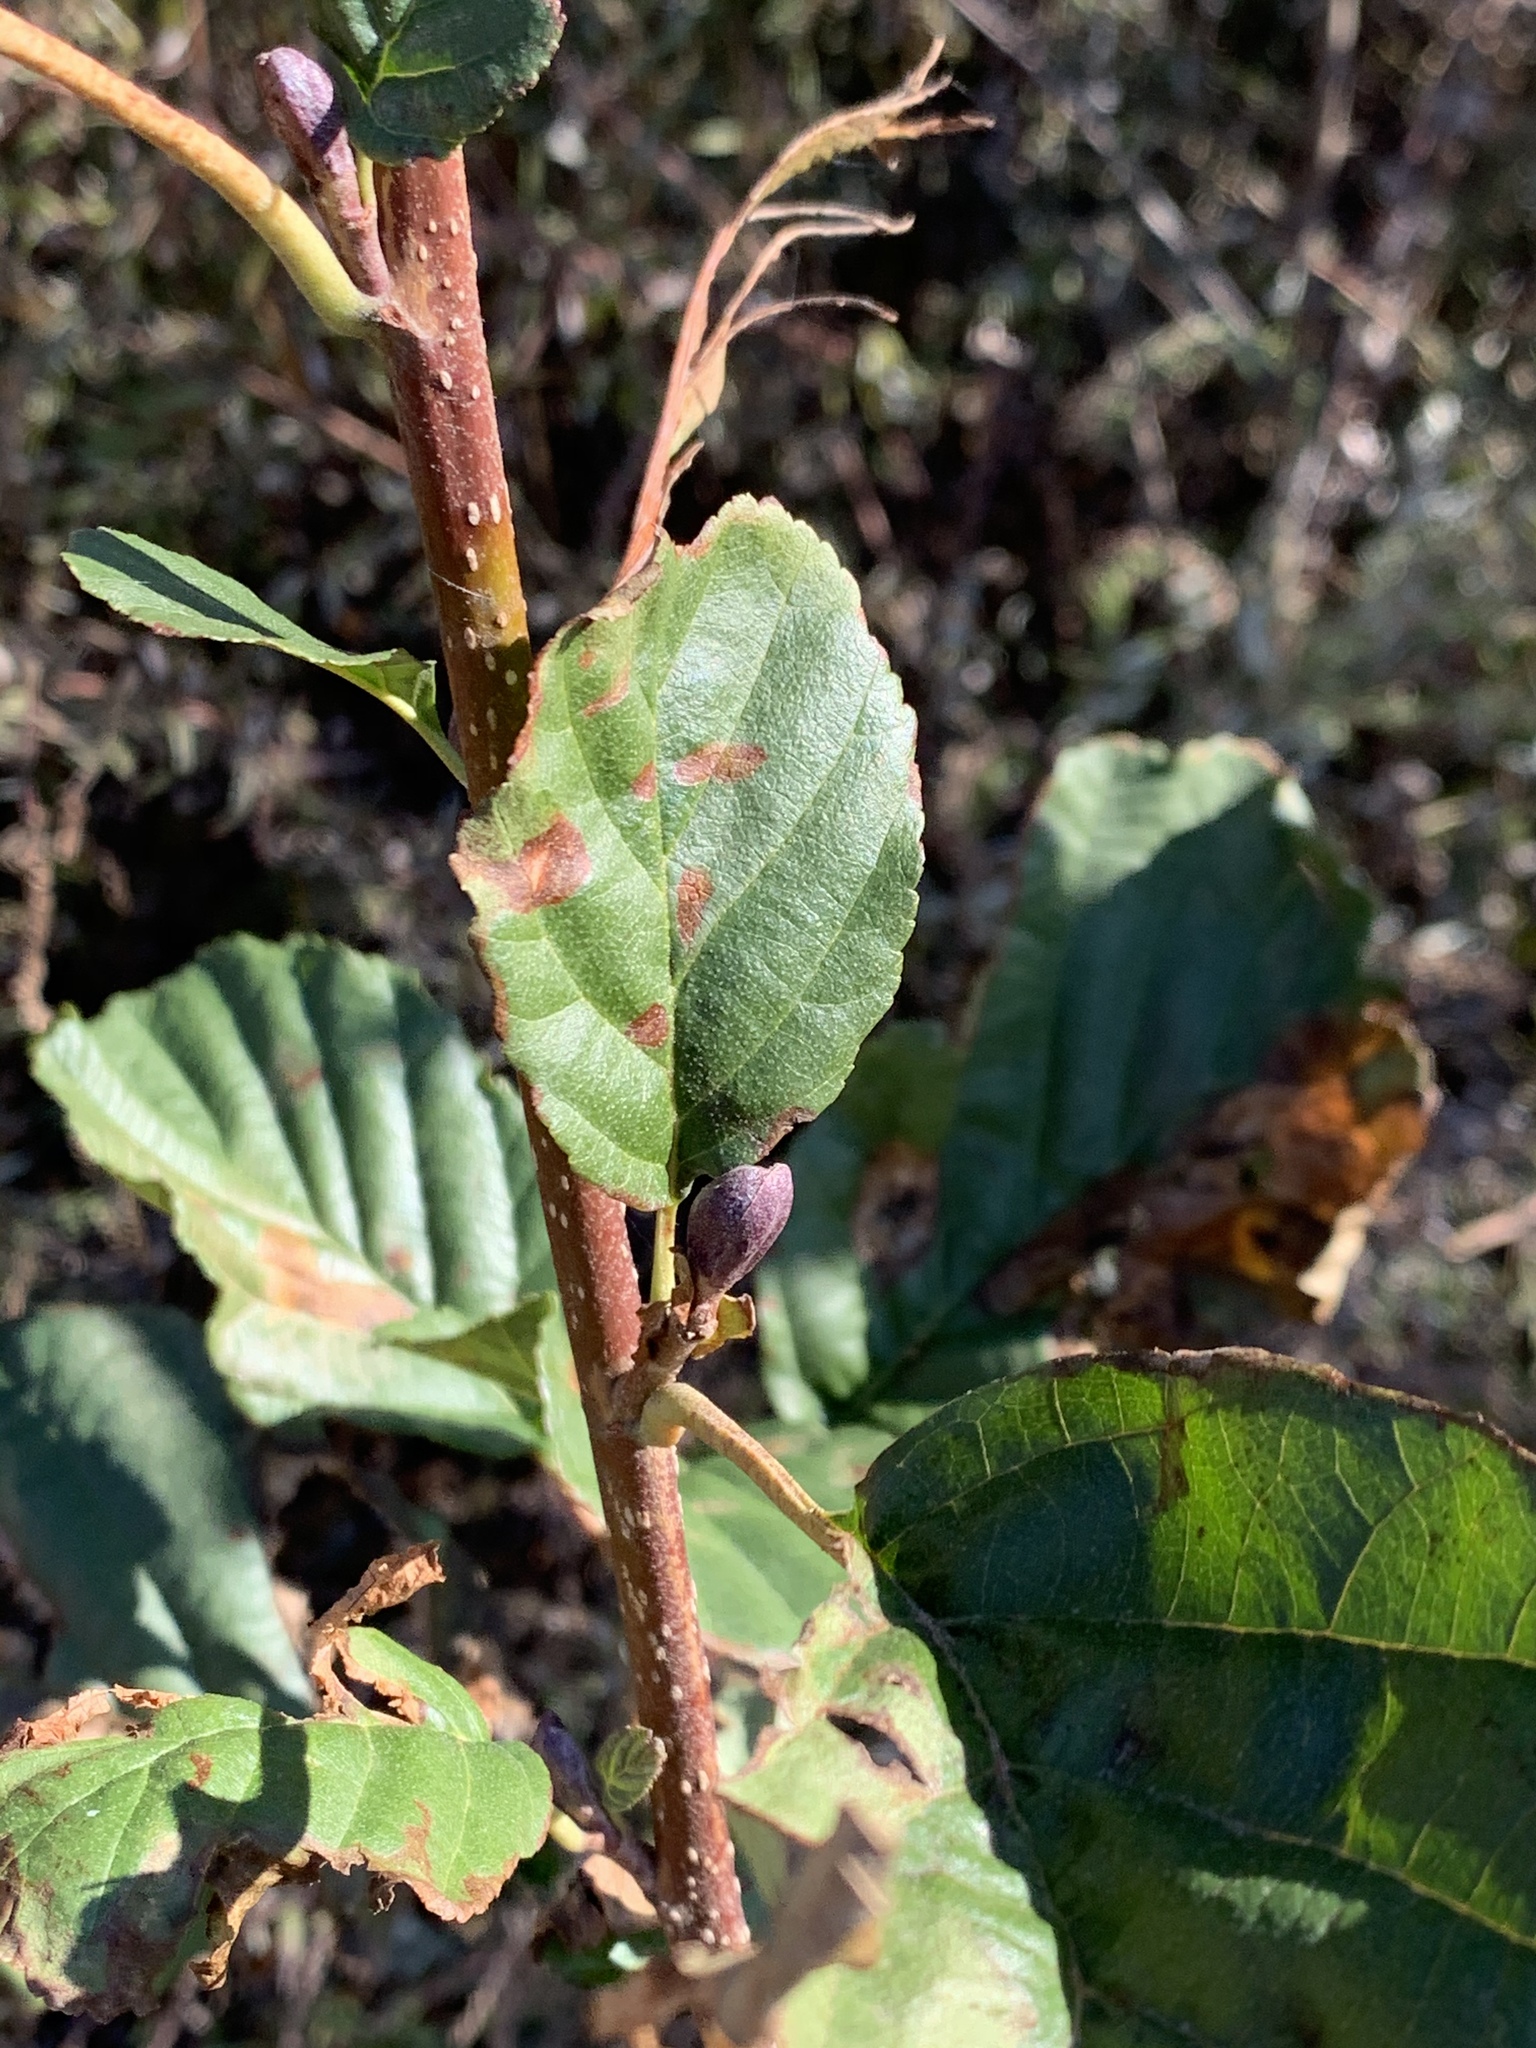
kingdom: Plantae
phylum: Tracheophyta
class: Magnoliopsida
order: Fagales
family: Betulaceae
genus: Alnus
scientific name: Alnus glutinosa
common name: Black alder
